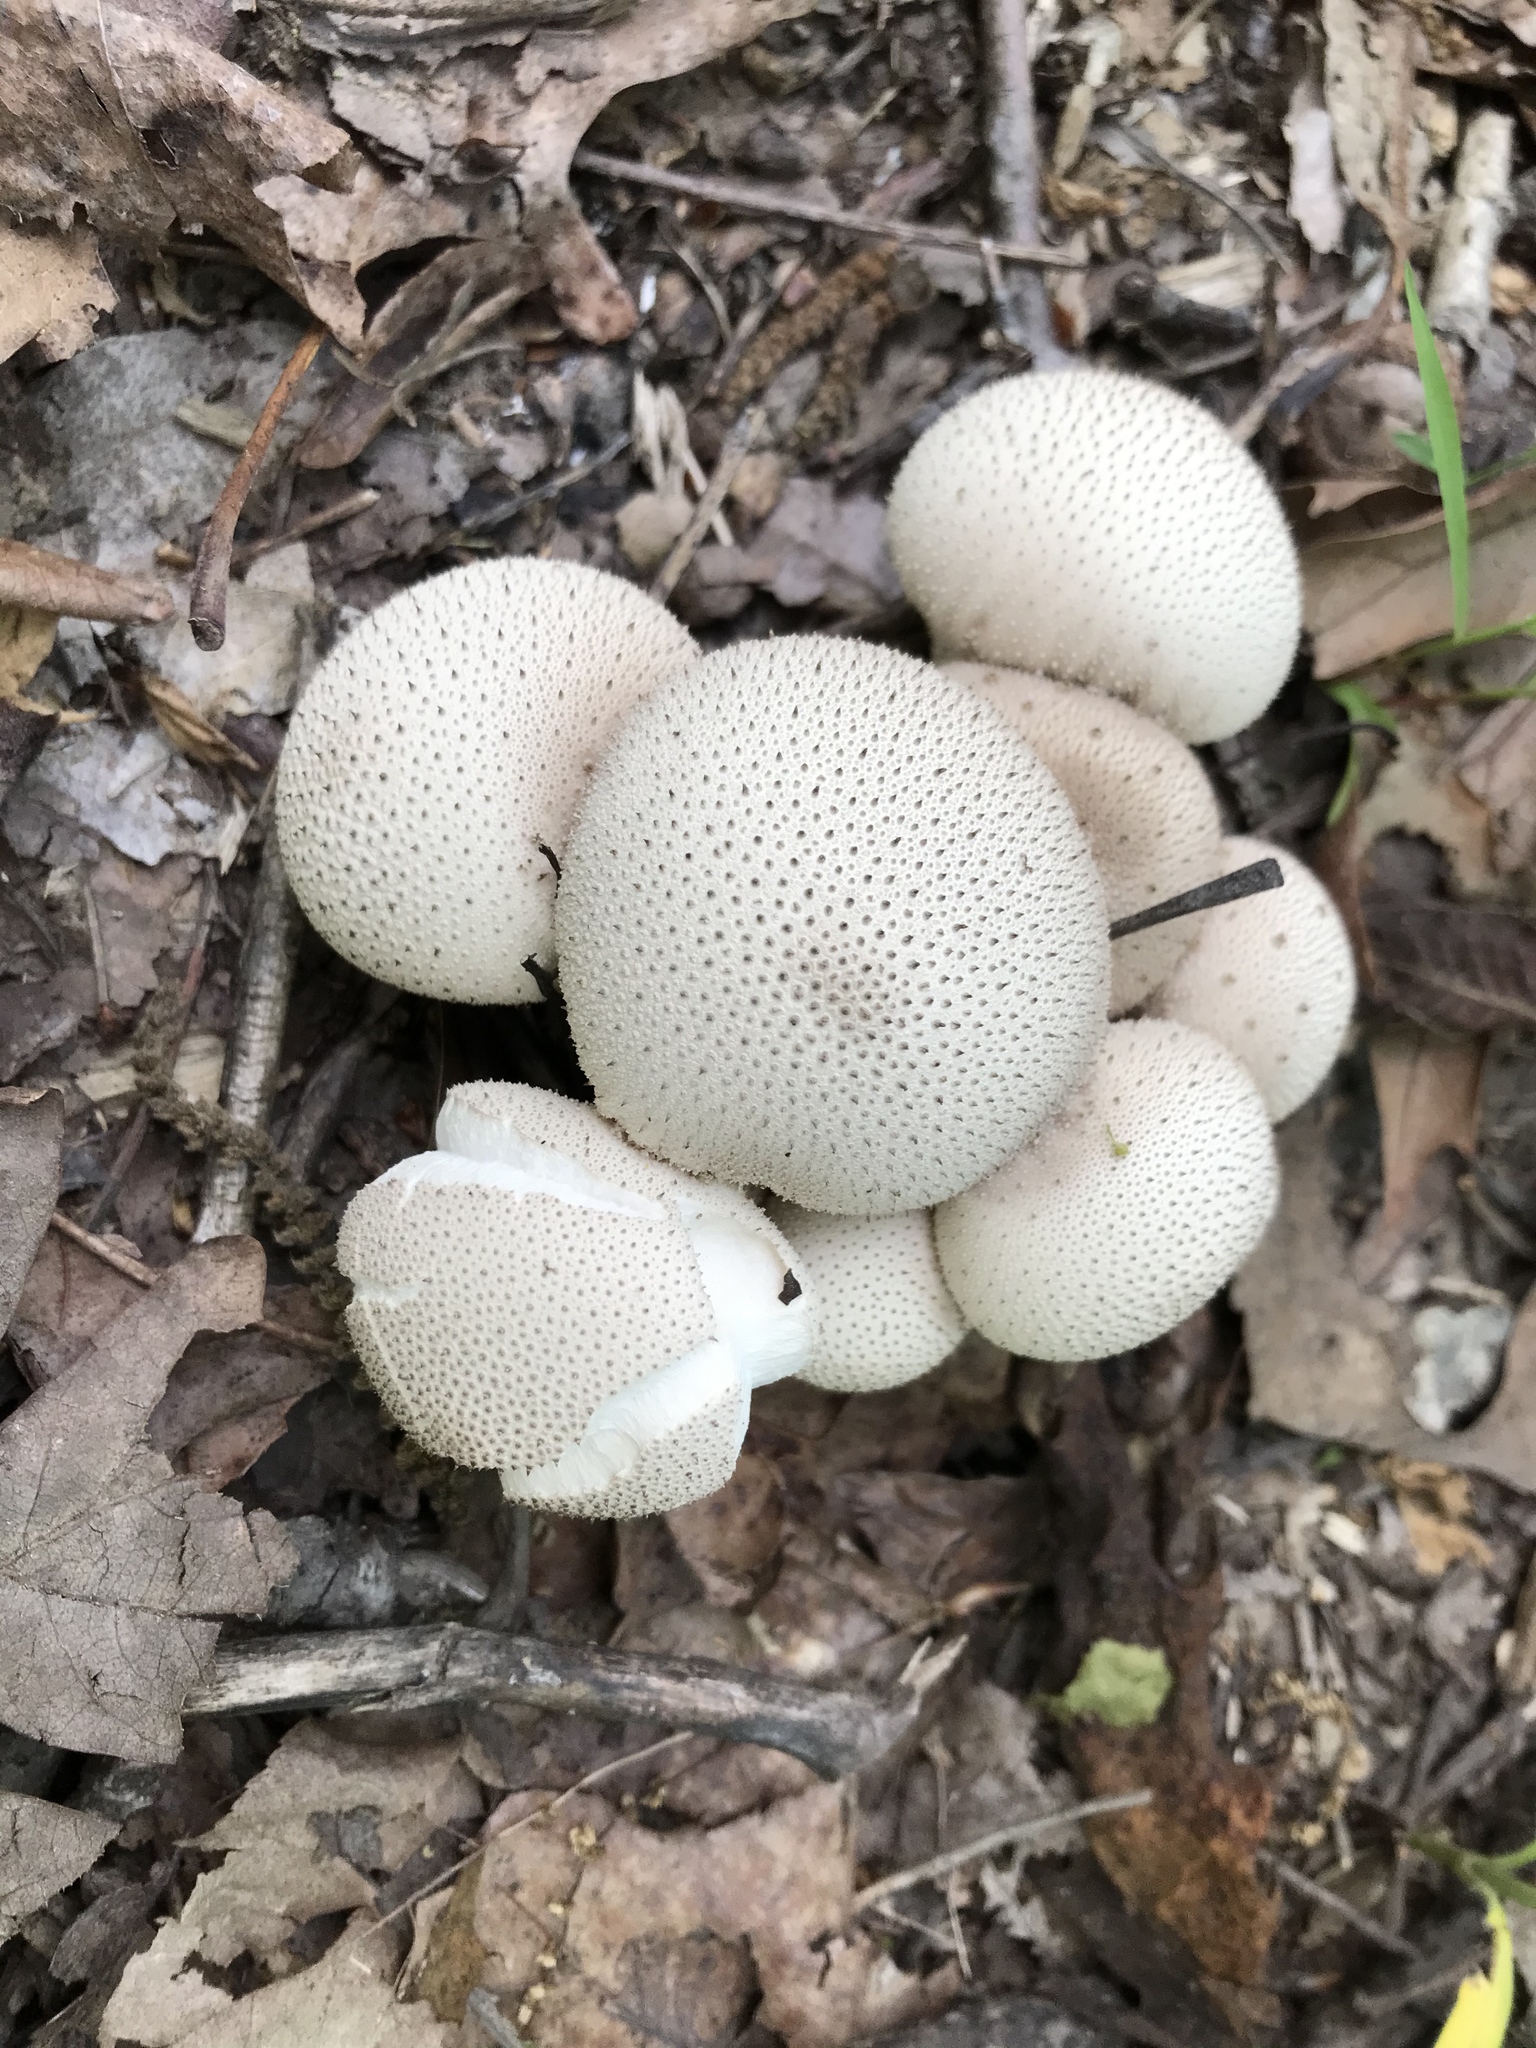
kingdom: Fungi
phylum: Basidiomycota
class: Agaricomycetes
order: Agaricales
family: Lycoperdaceae
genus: Lycoperdon
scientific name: Lycoperdon perlatum
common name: Common puffball
